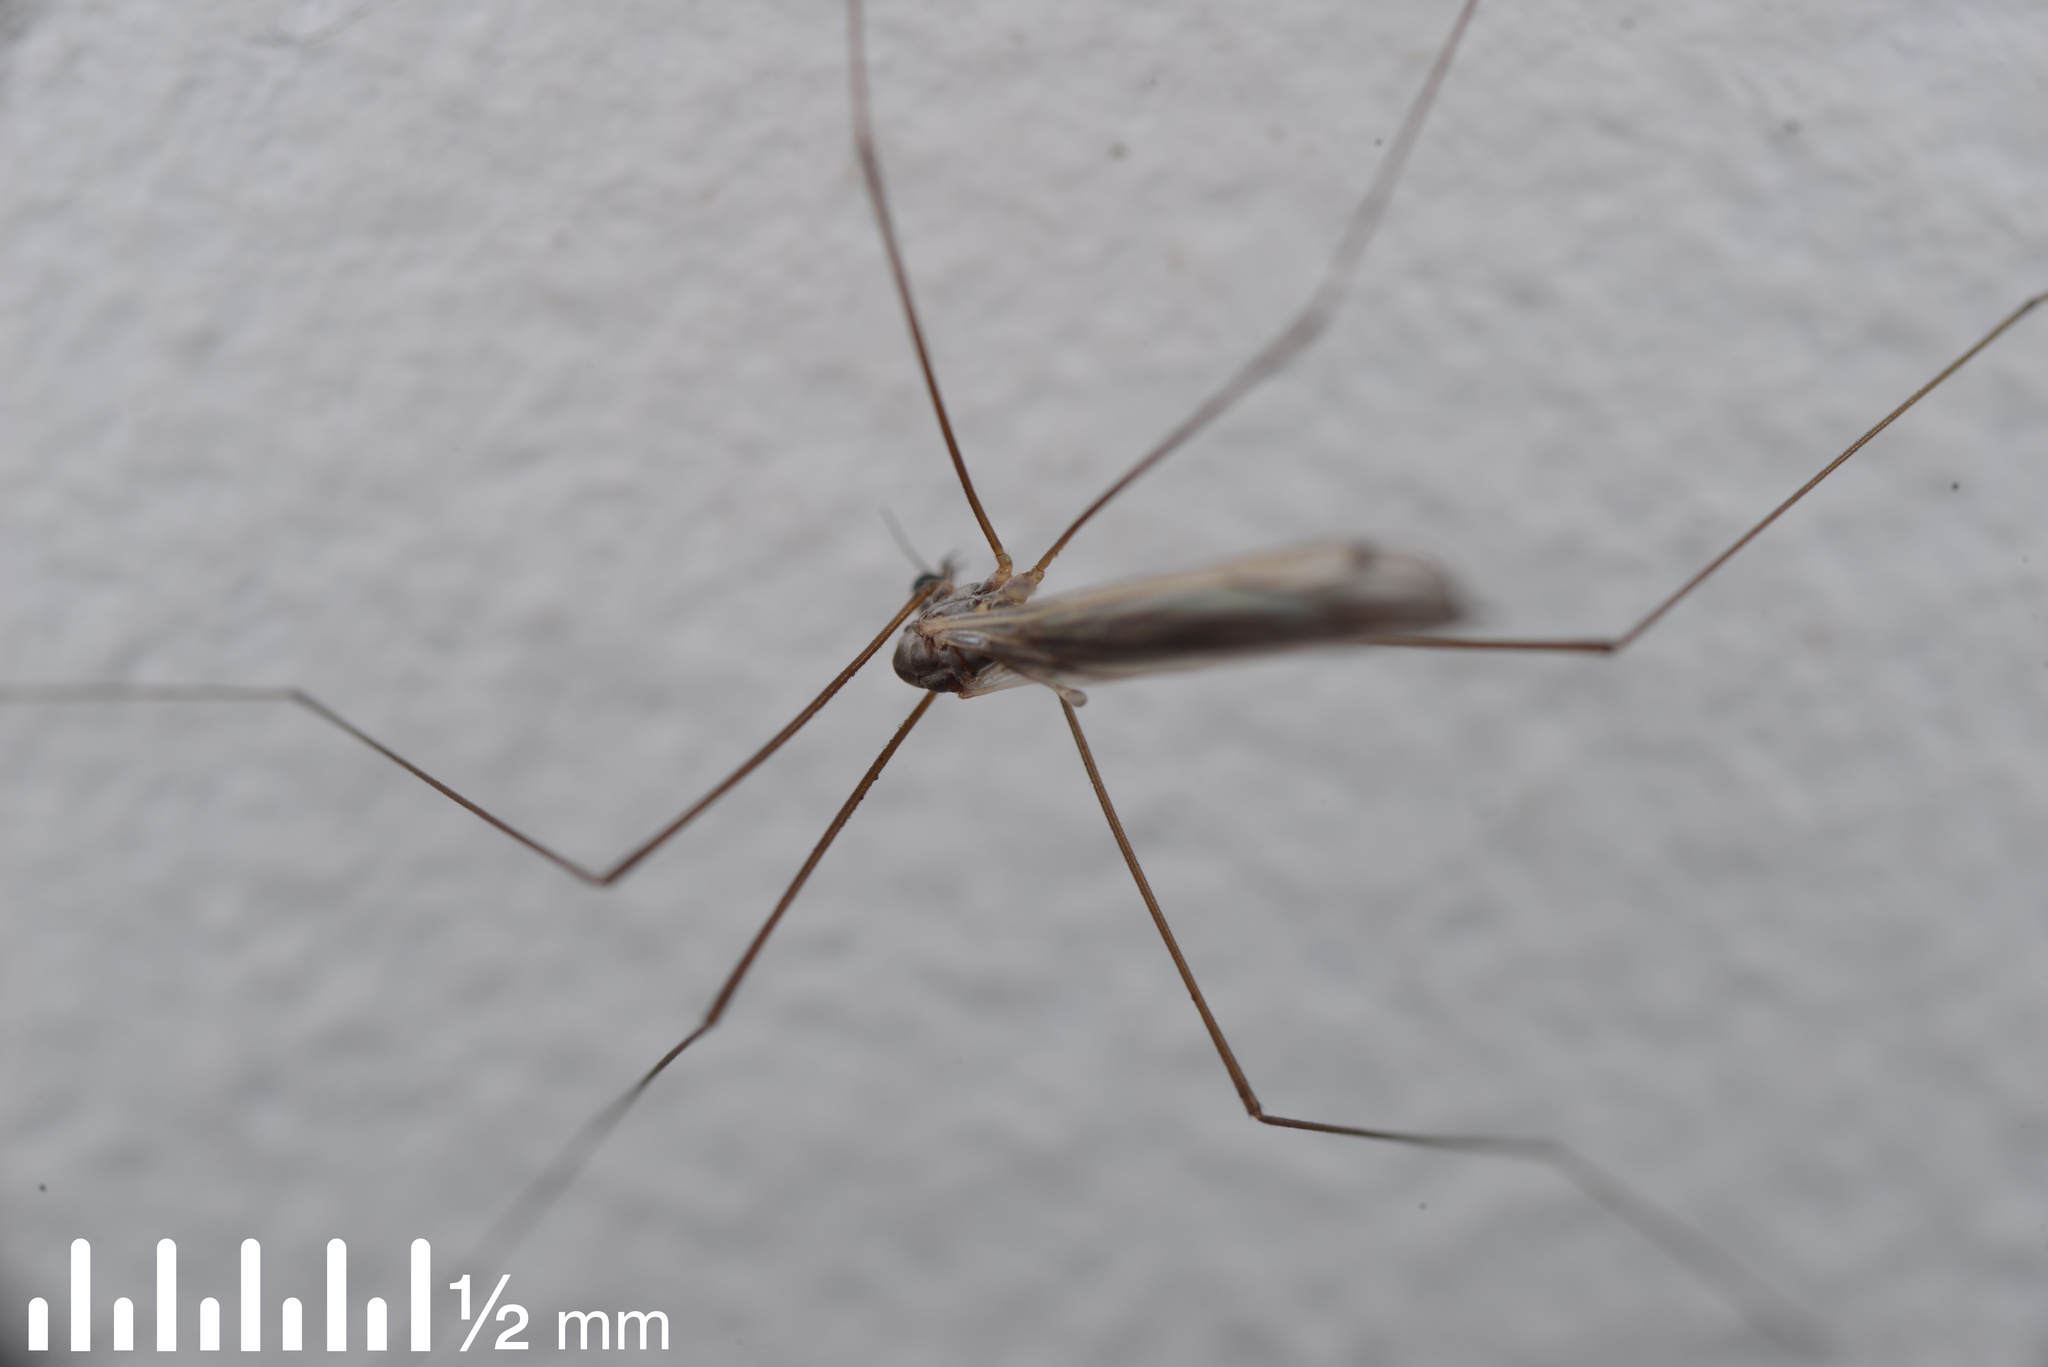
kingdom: Animalia
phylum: Arthropoda
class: Insecta
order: Diptera
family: Limoniidae
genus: Dicranomyia
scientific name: Dicranomyia aegrotans
